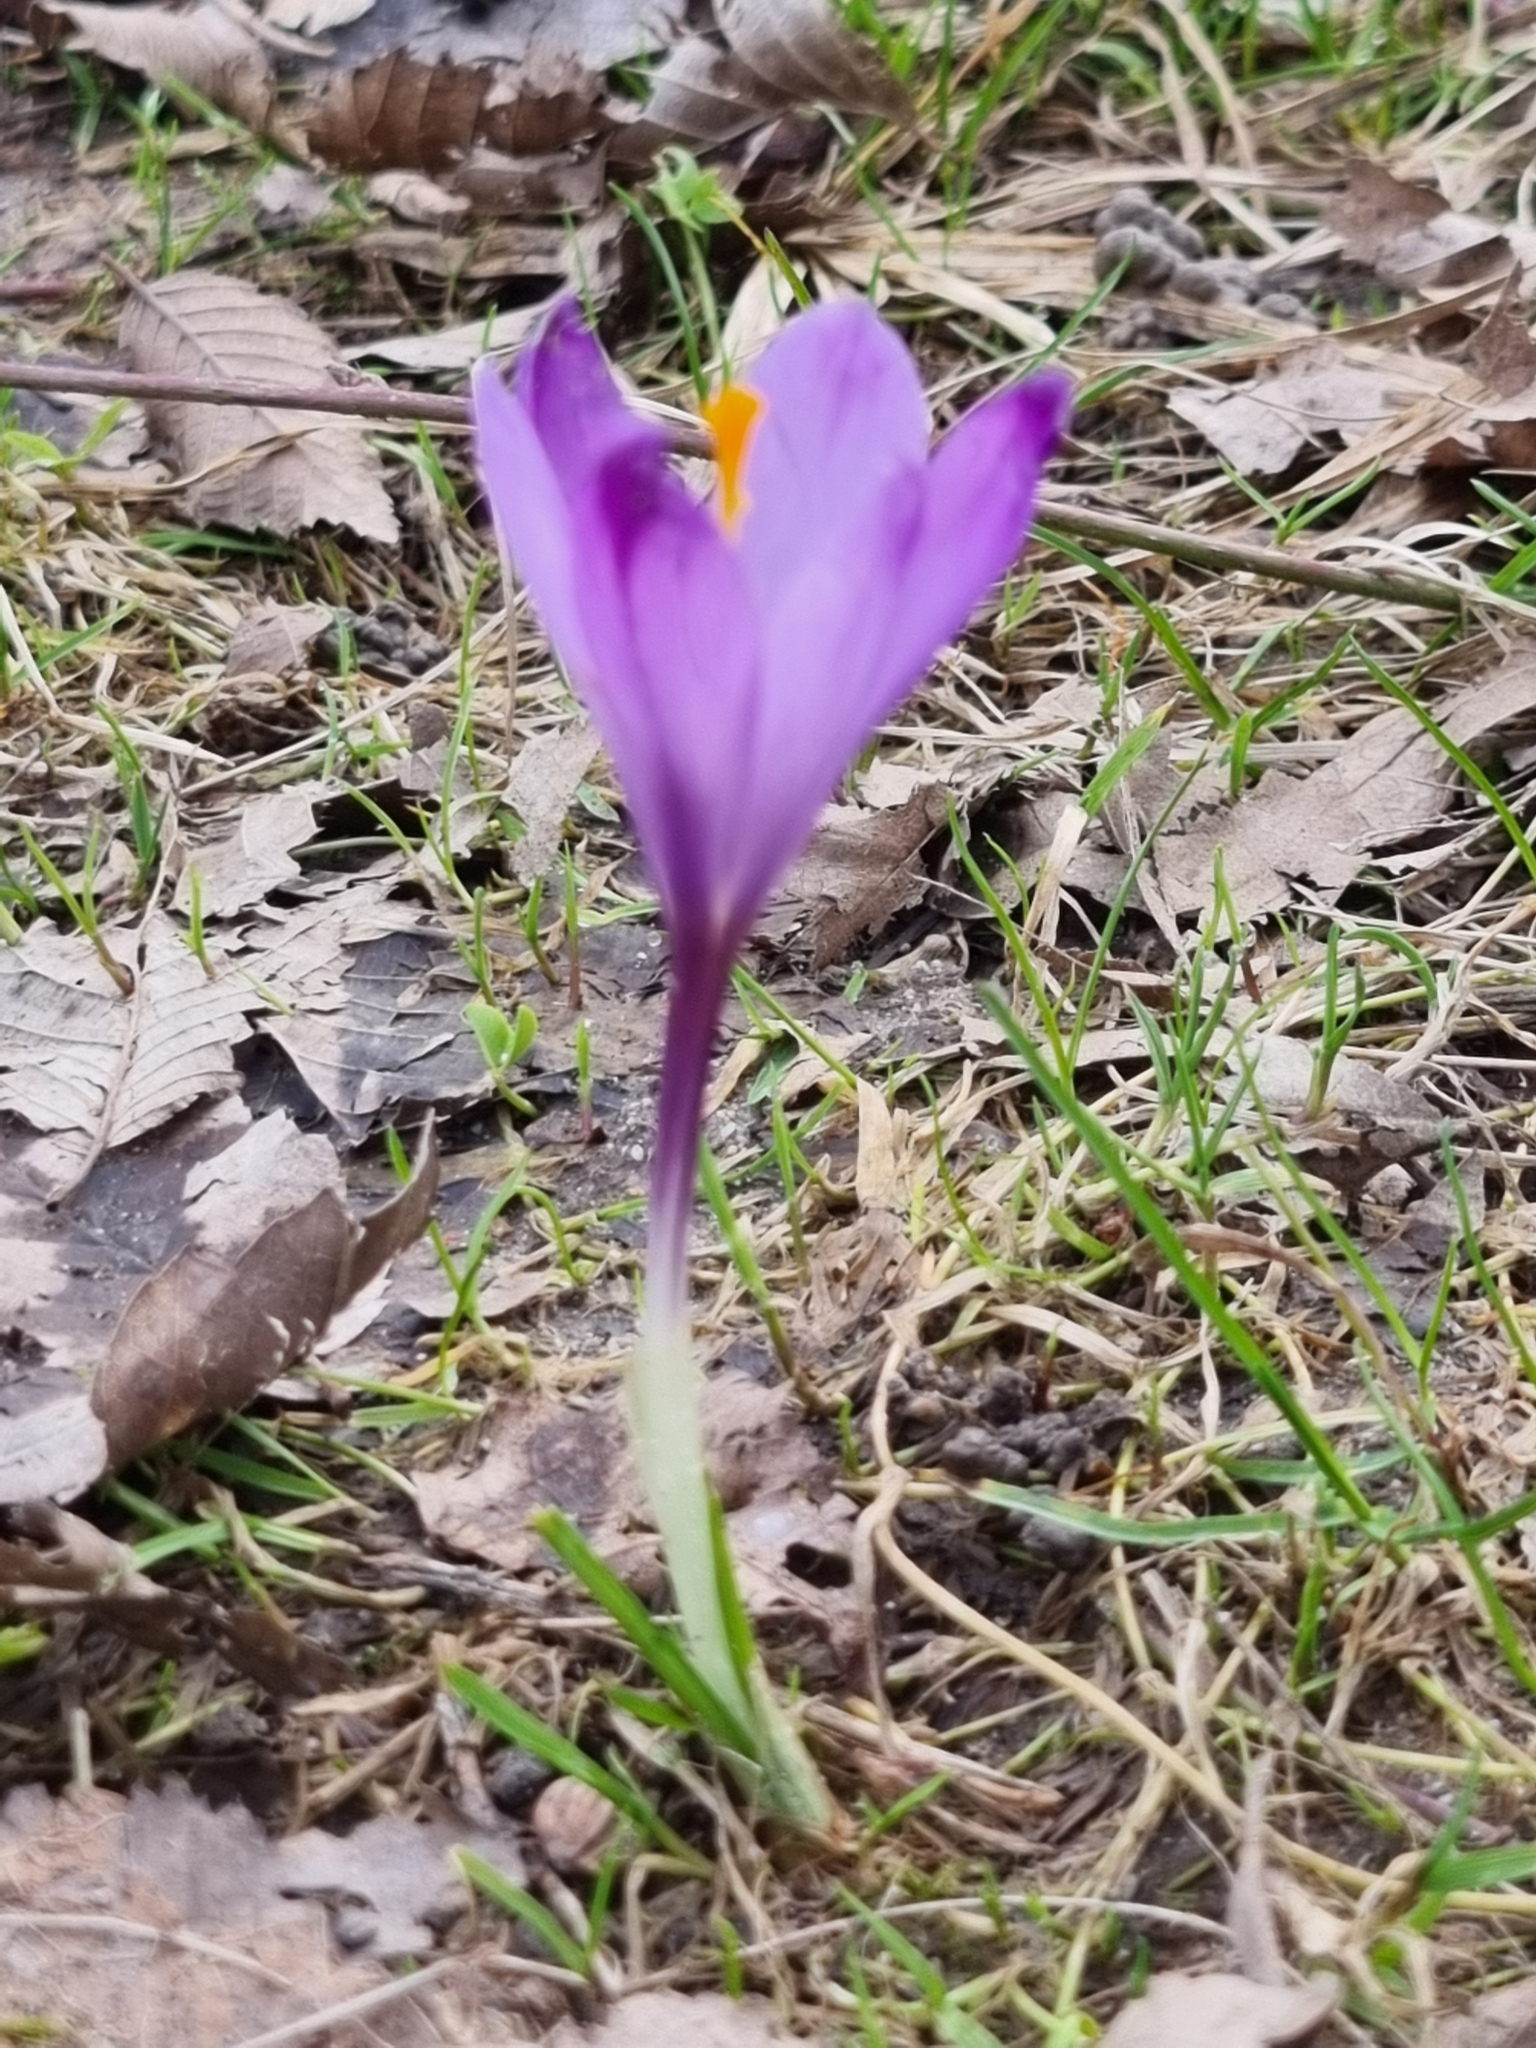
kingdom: Plantae
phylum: Tracheophyta
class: Liliopsida
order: Asparagales
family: Iridaceae
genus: Crocus
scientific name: Crocus heuffelianus
